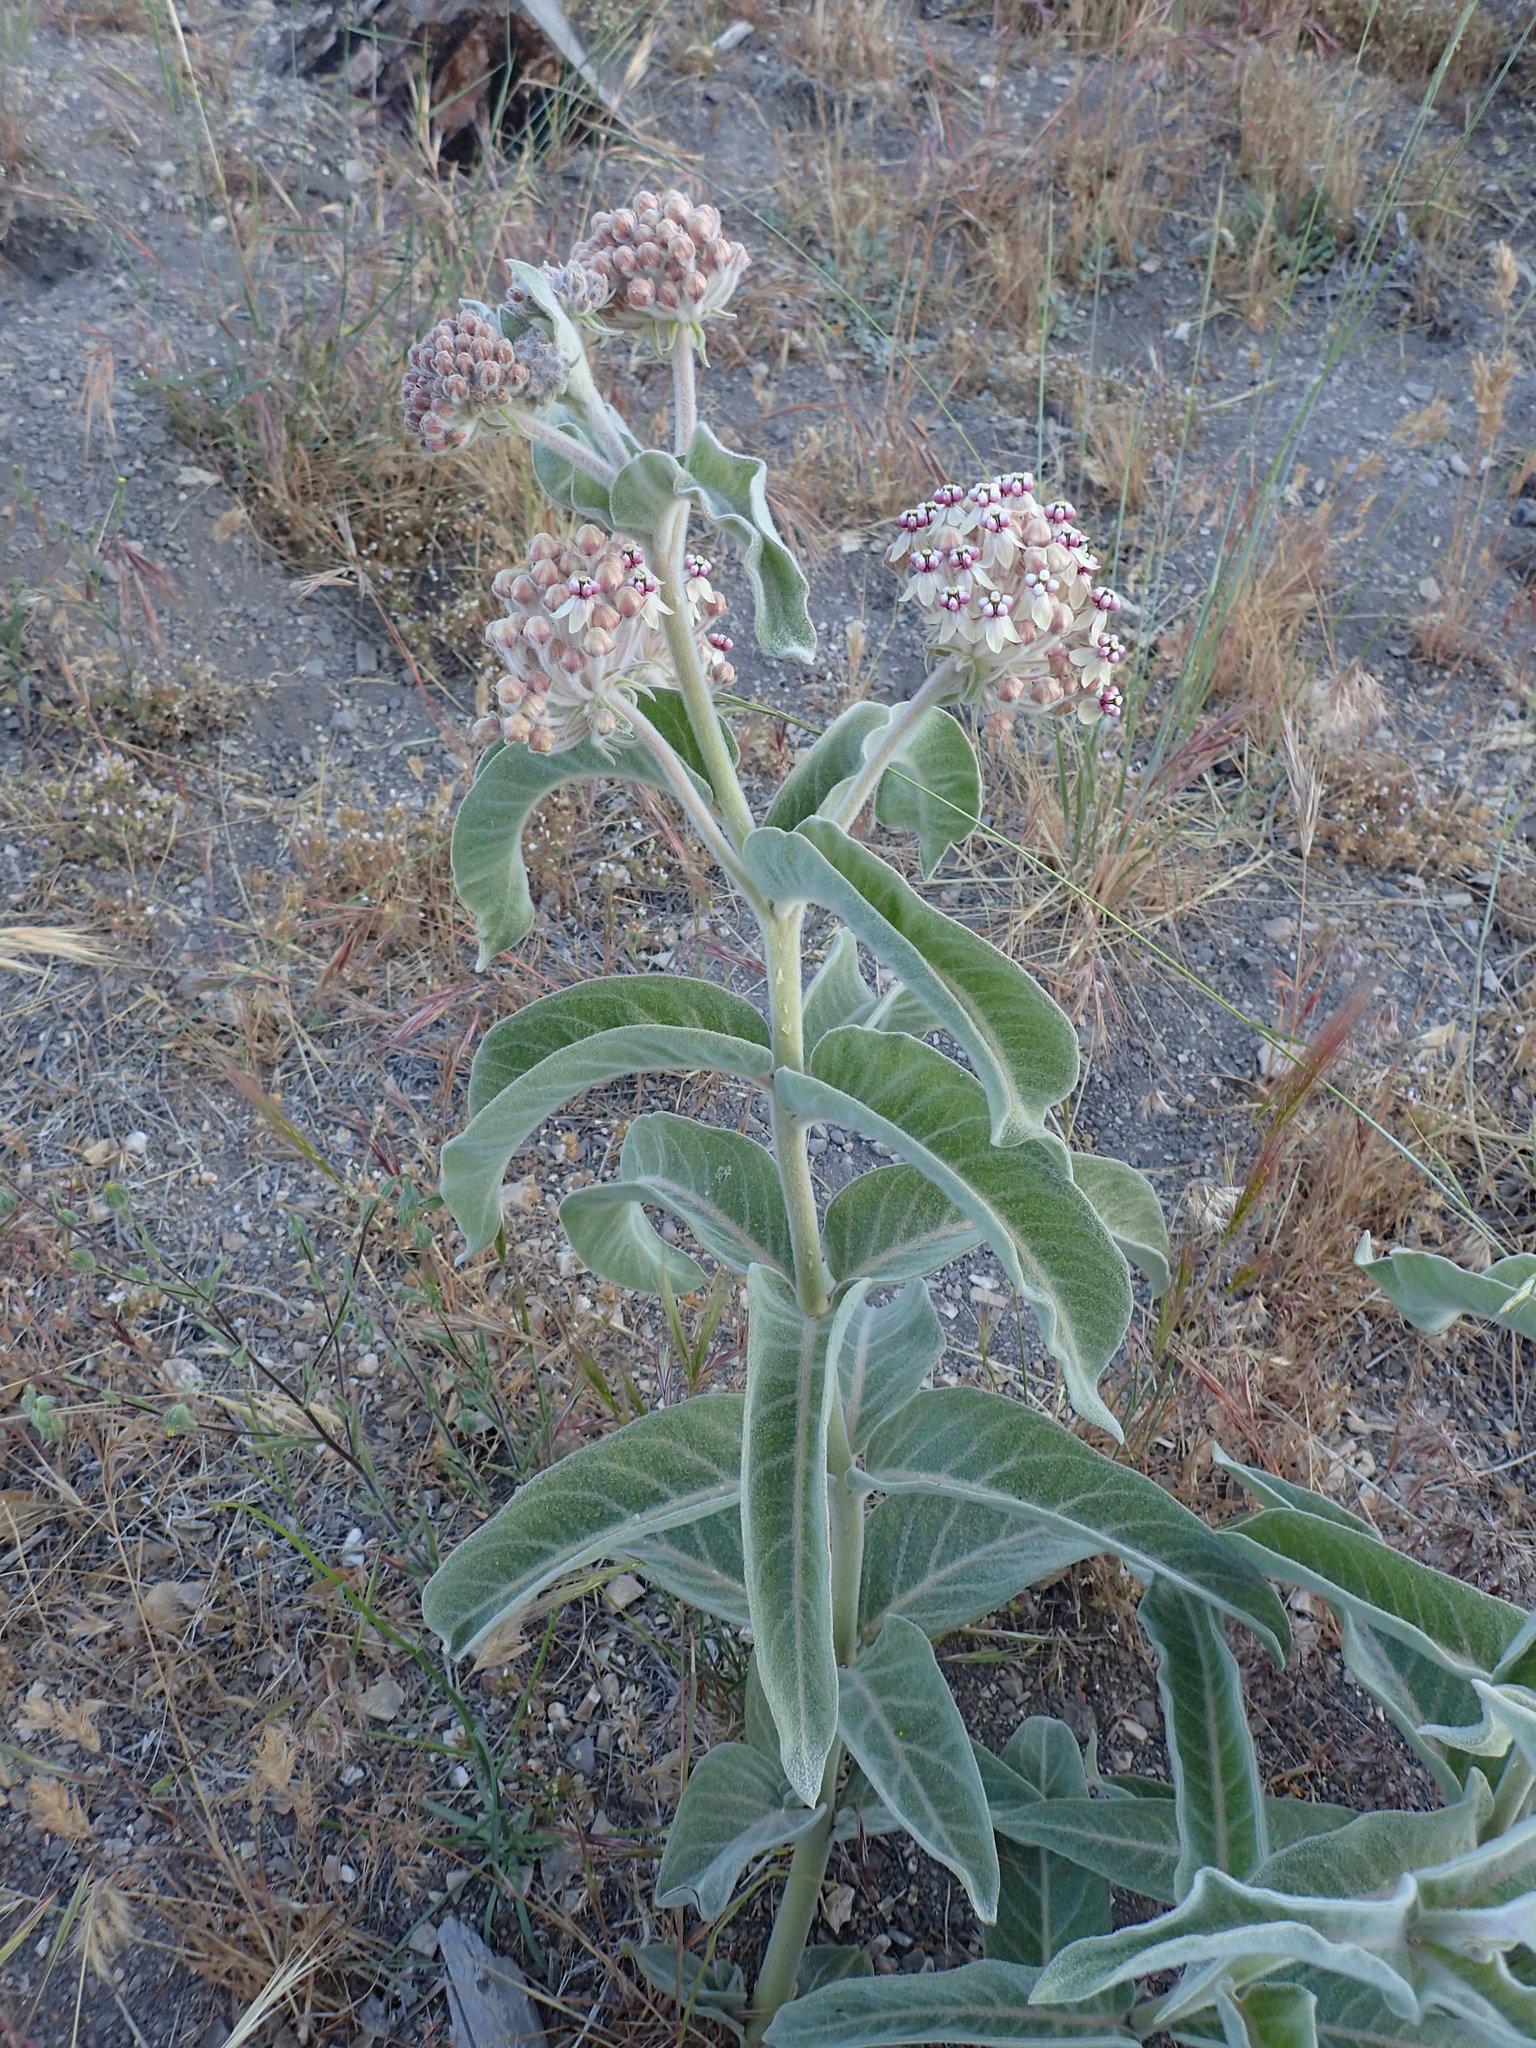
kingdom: Plantae
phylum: Tracheophyta
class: Magnoliopsida
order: Gentianales
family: Apocynaceae
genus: Asclepias
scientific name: Asclepias eriocarpa
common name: Indian milkweed
